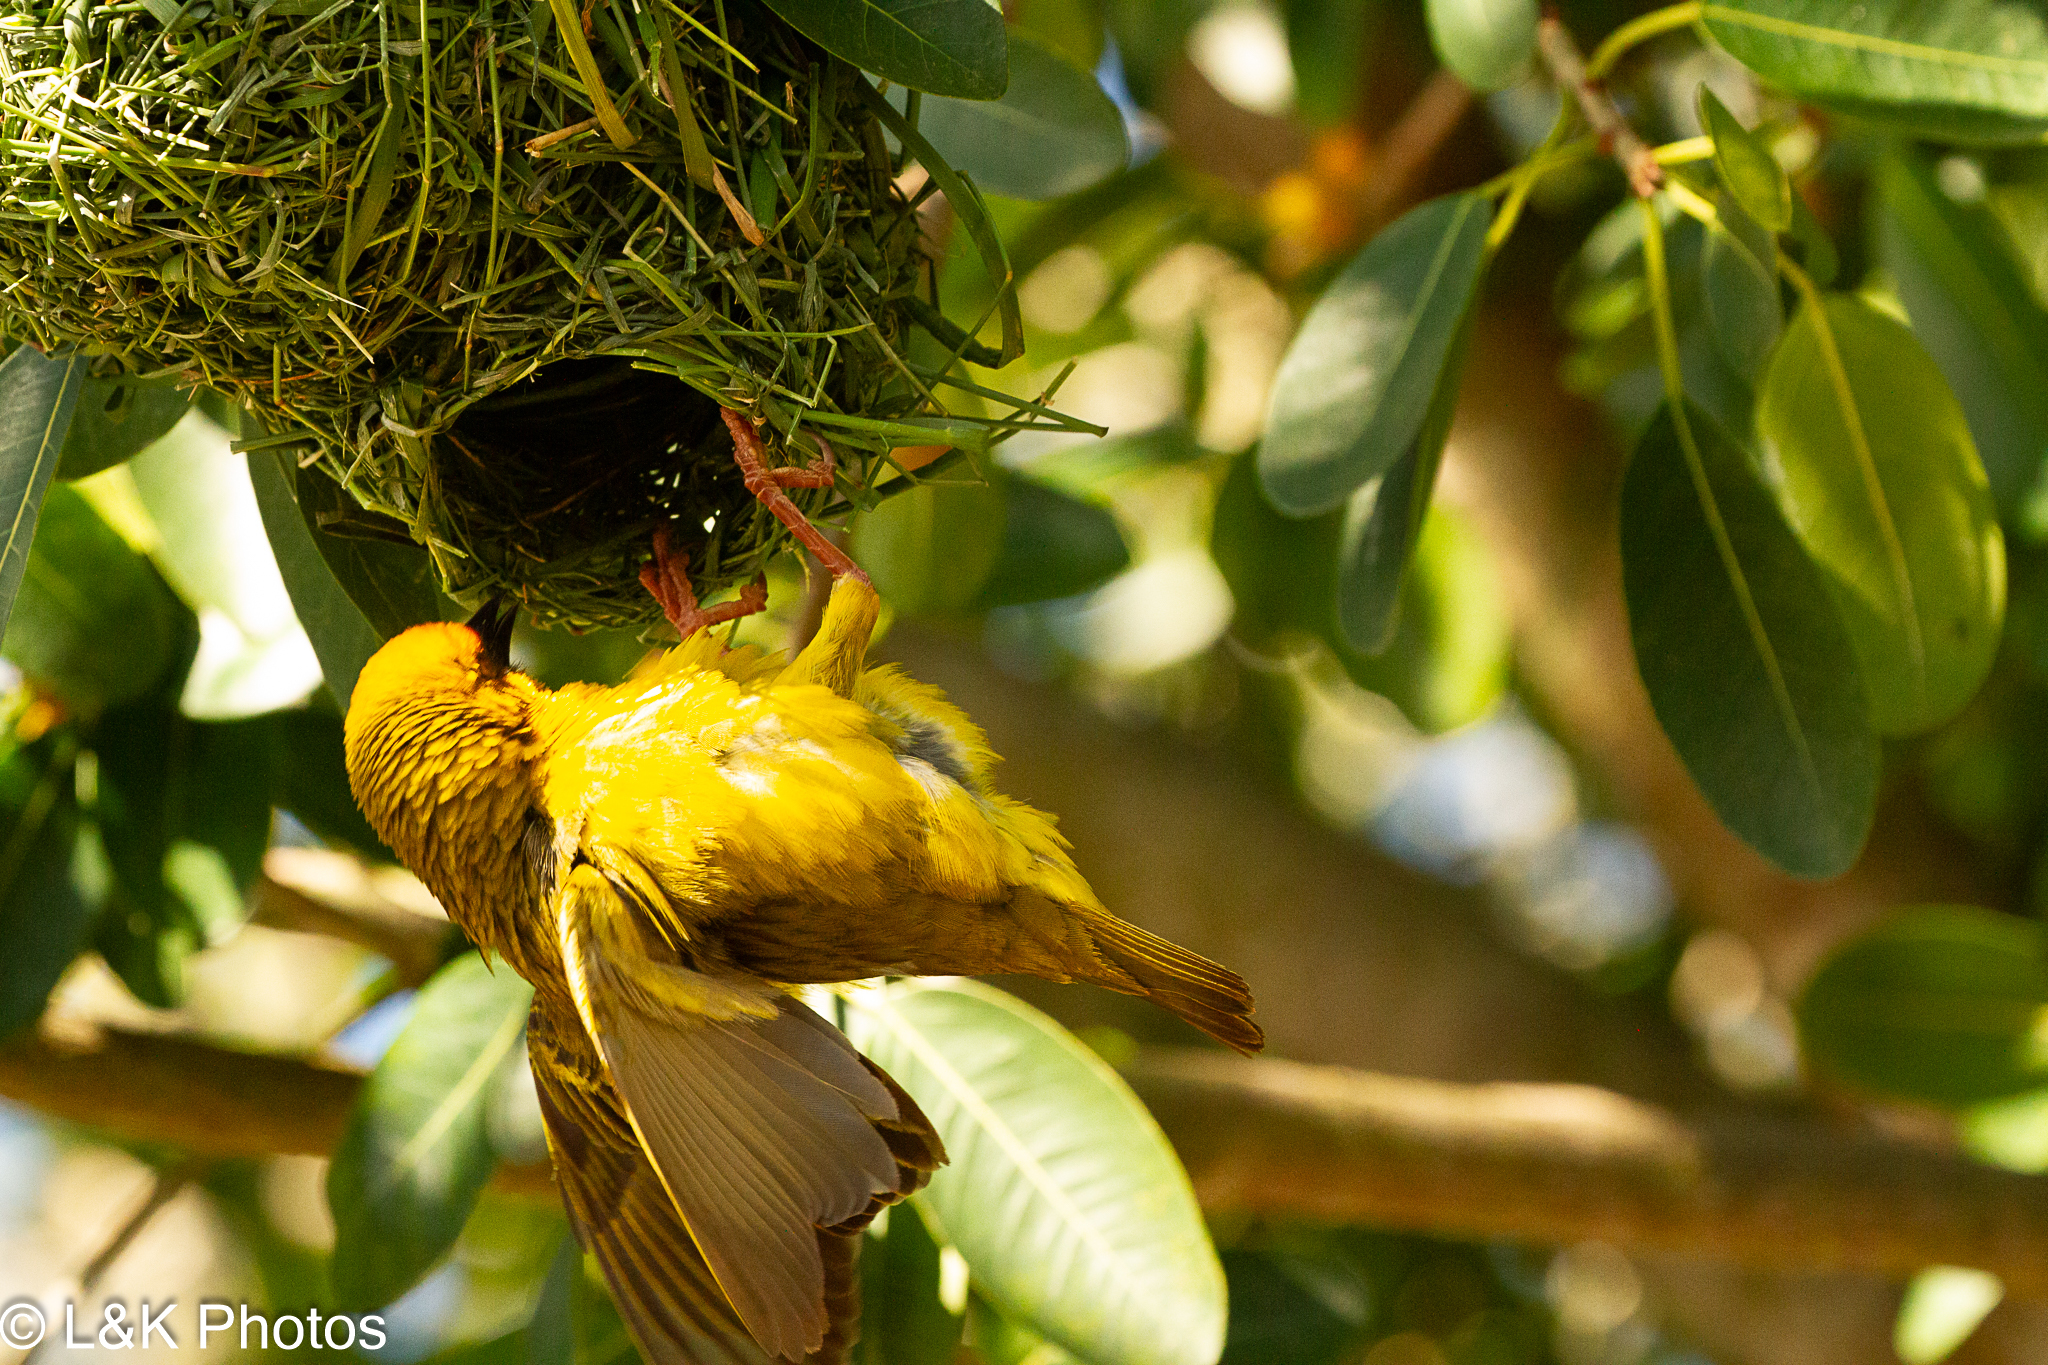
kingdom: Animalia
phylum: Chordata
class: Aves
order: Passeriformes
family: Ploceidae
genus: Ploceus
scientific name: Ploceus capensis
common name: Cape weaver
